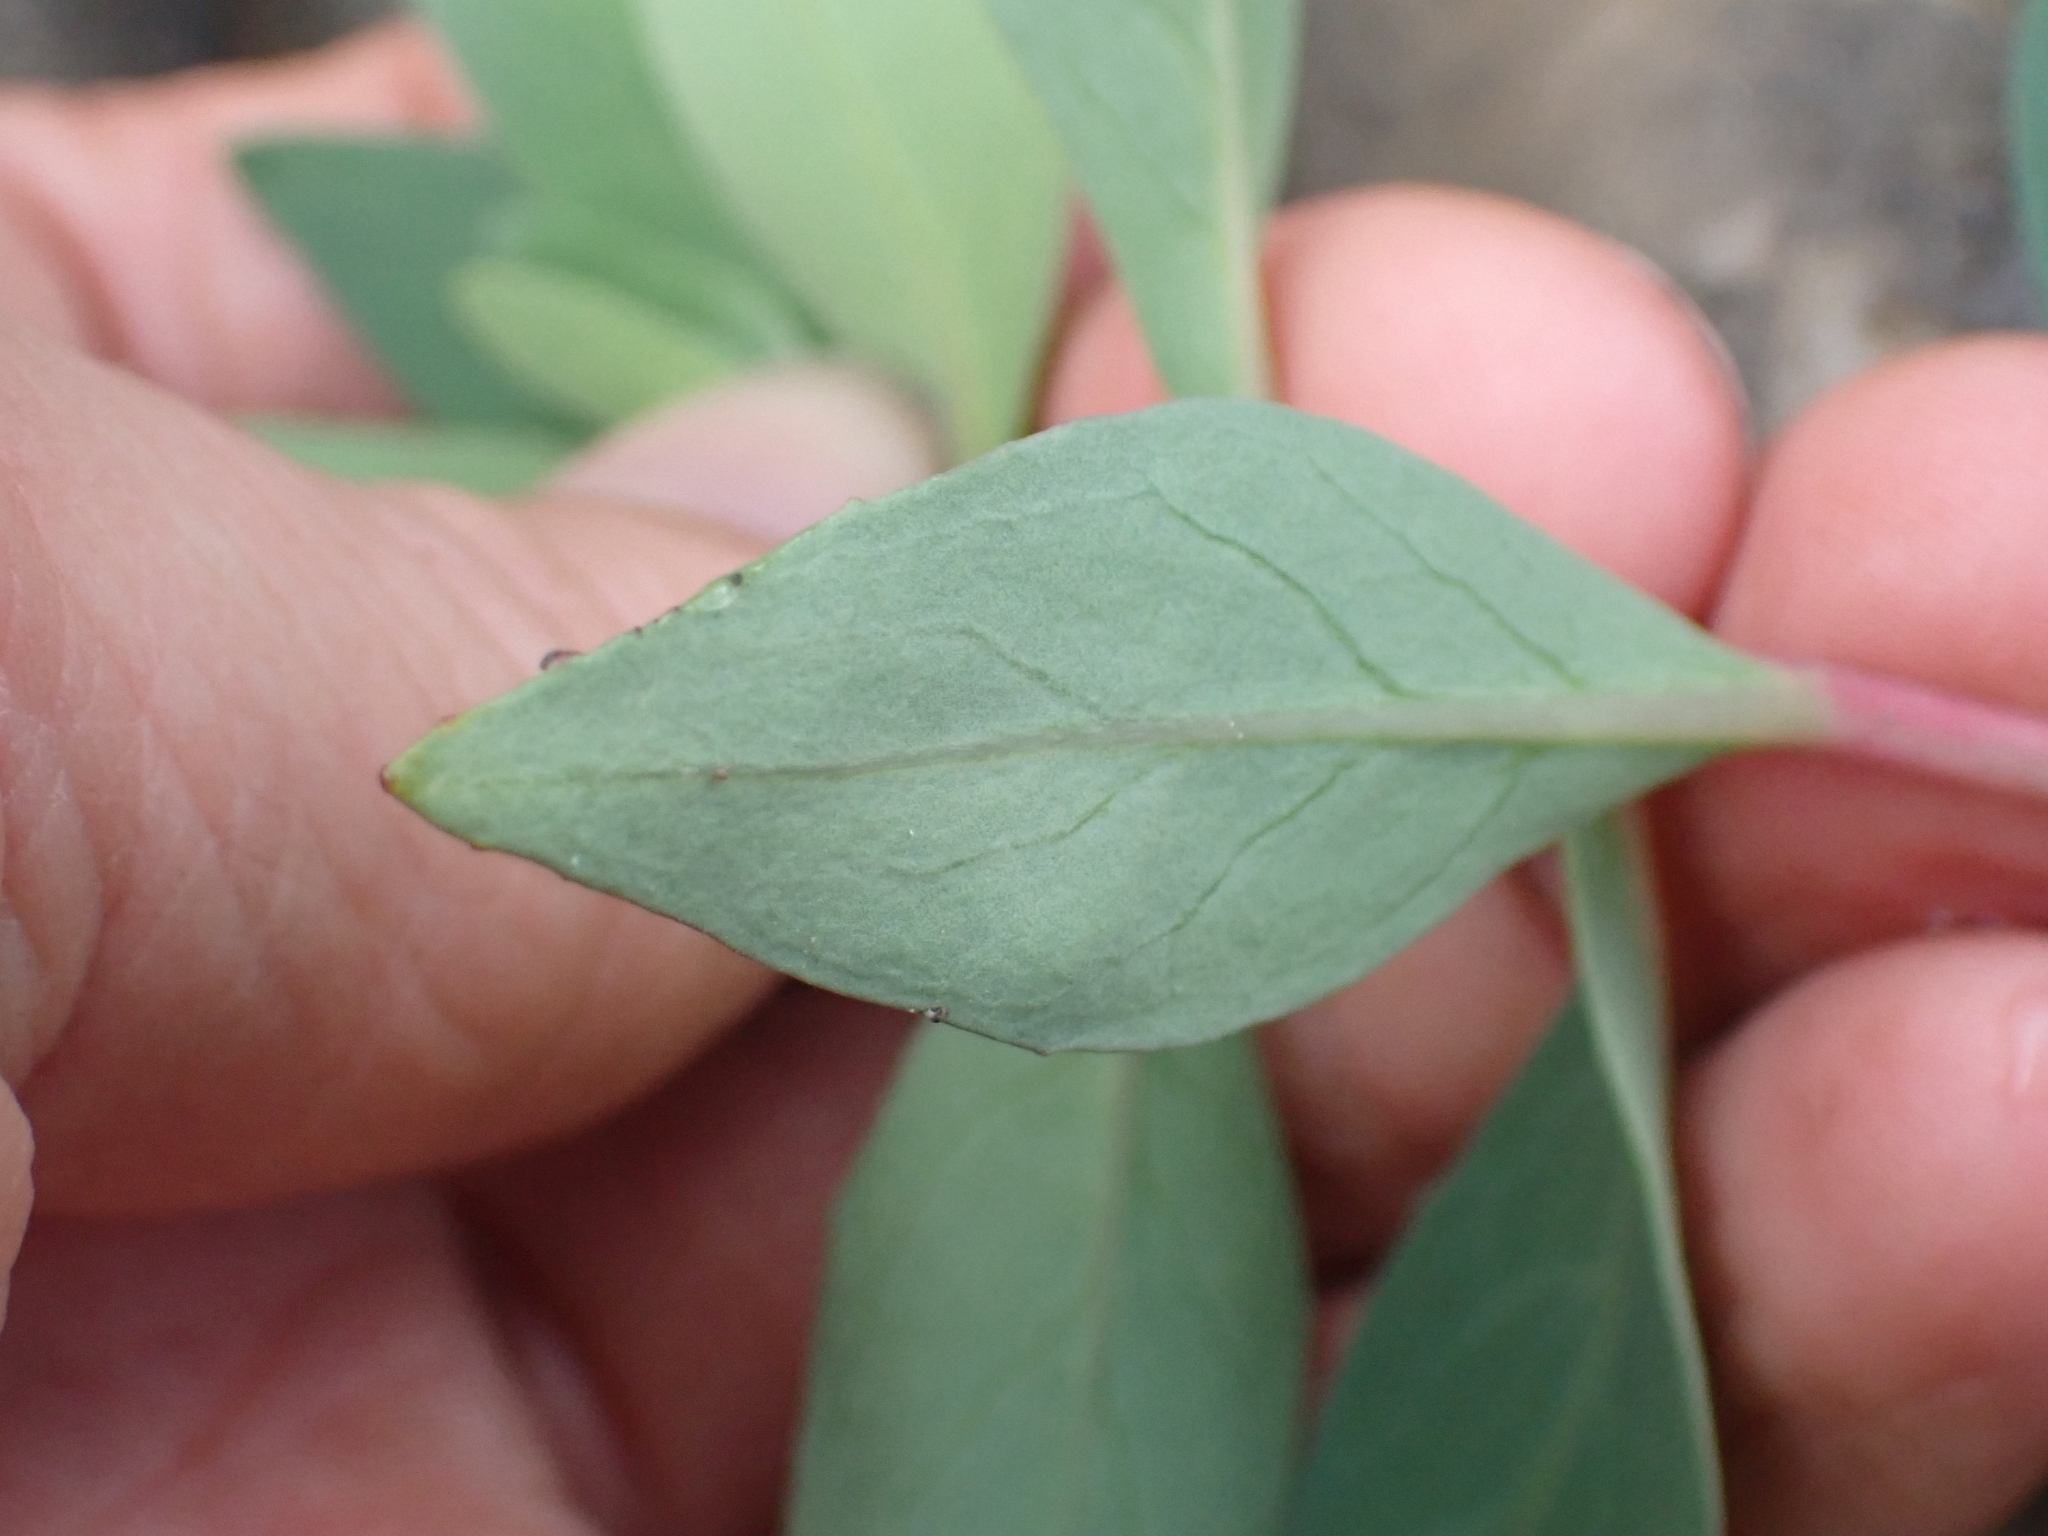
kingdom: Plantae
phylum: Tracheophyta
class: Magnoliopsida
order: Myrtales
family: Onagraceae
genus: Chamaenerion
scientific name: Chamaenerion latifolium
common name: Dwarf fireweed
